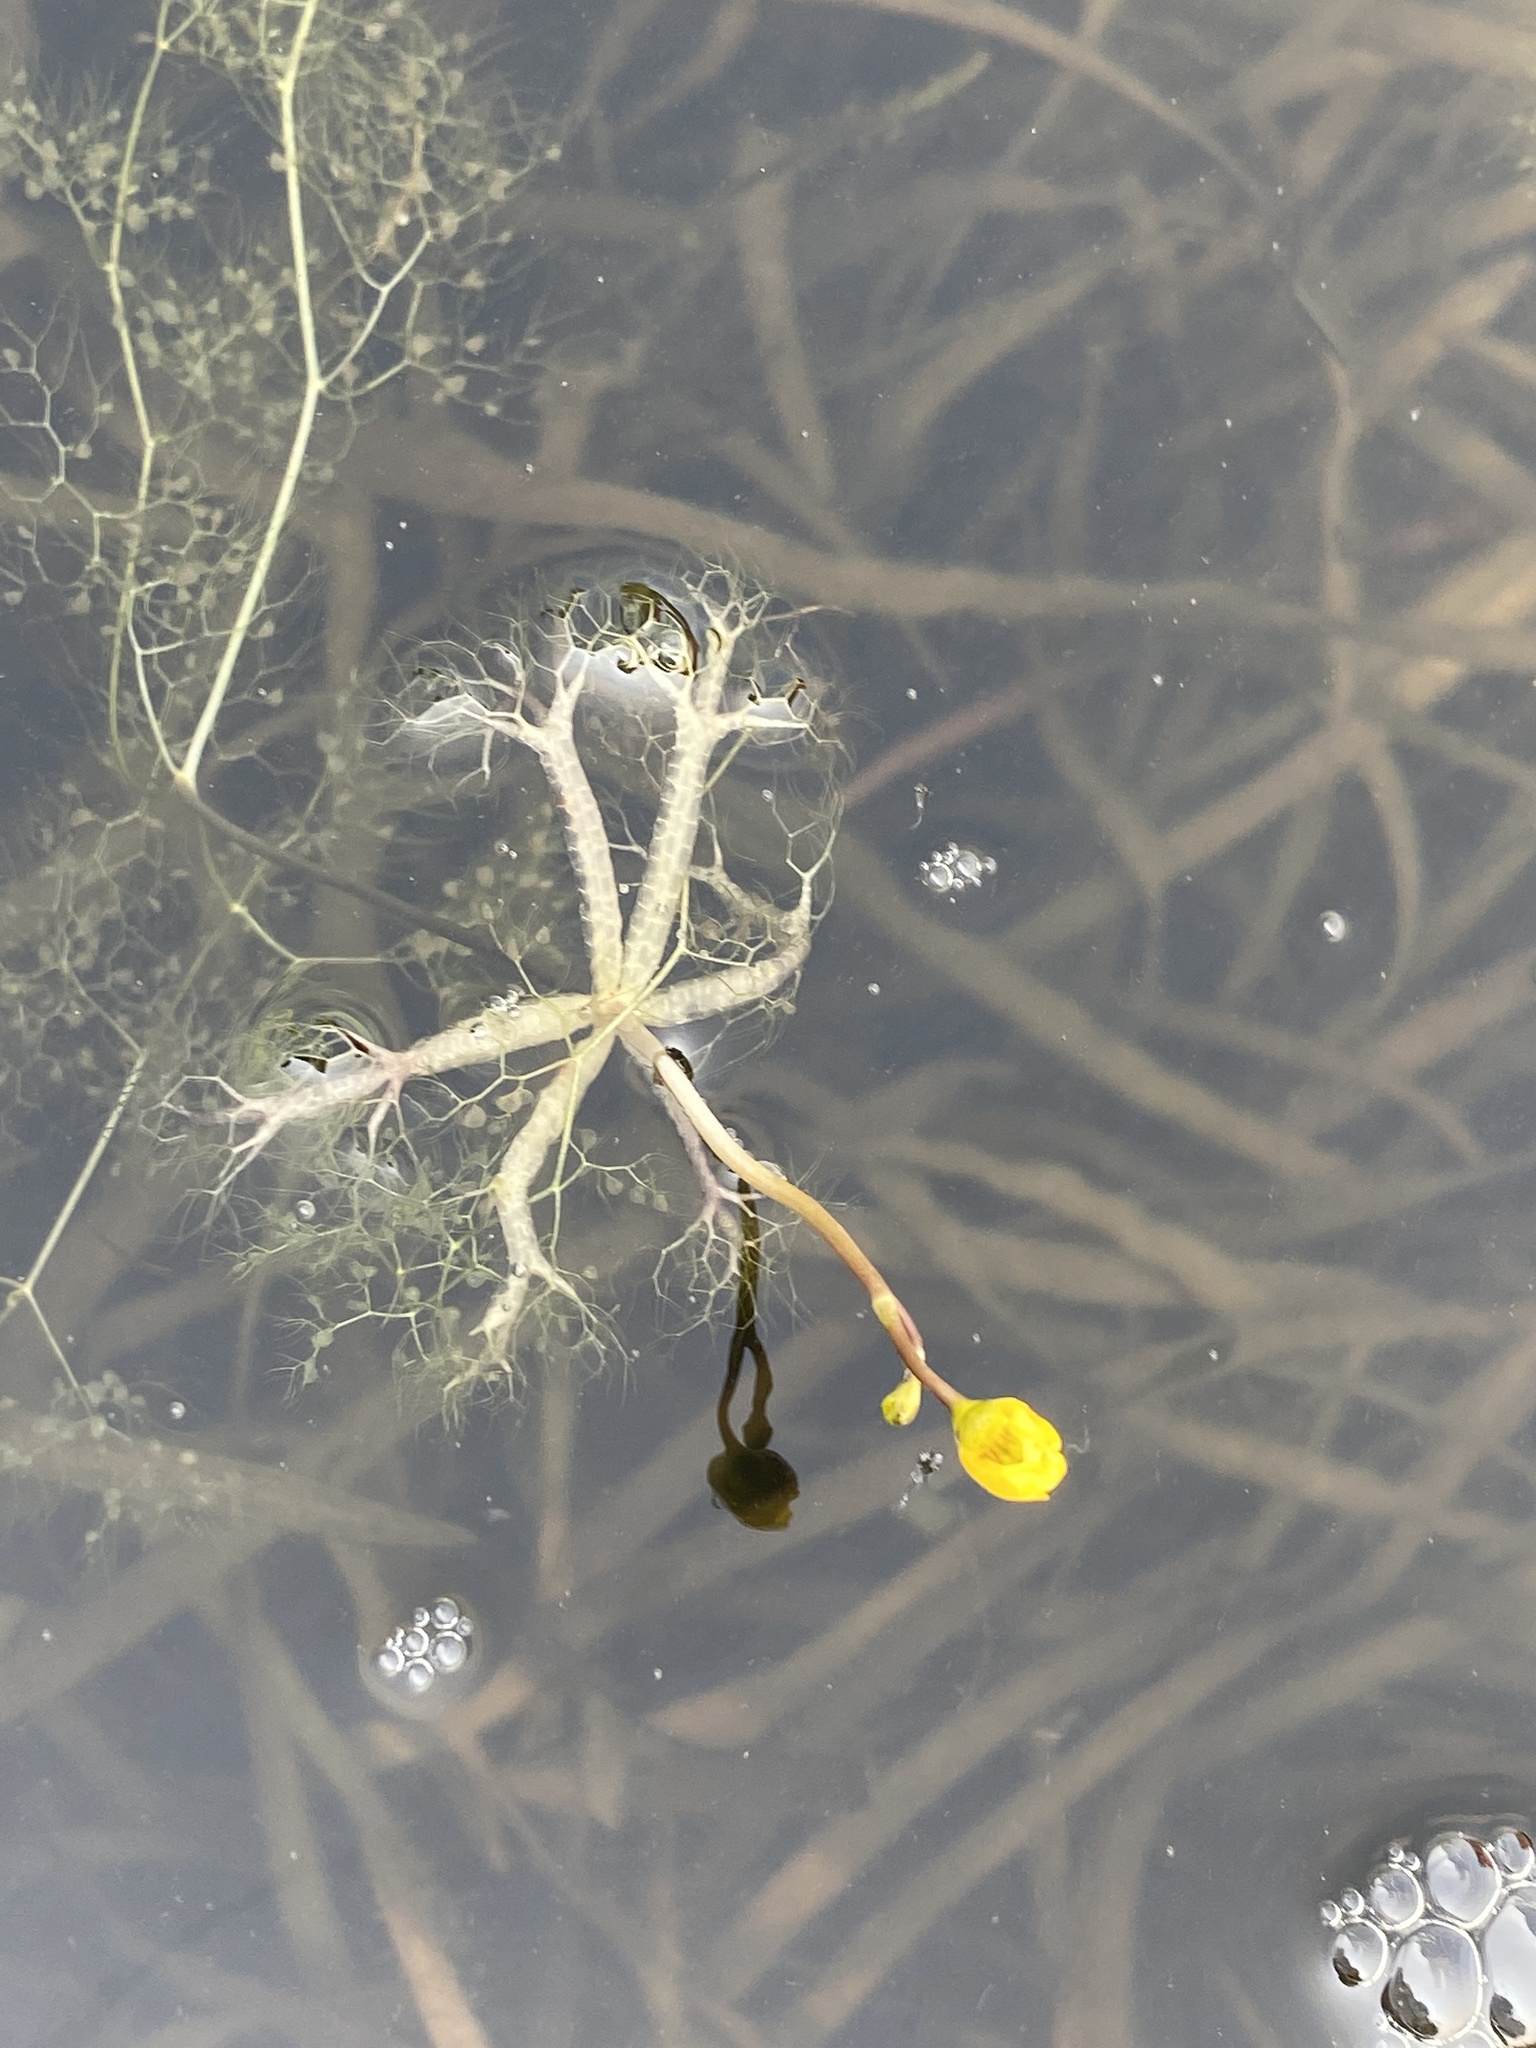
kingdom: Plantae
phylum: Tracheophyta
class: Magnoliopsida
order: Lamiales
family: Lentibulariaceae
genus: Utricularia
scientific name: Utricularia radiata
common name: Floating bladderwort
